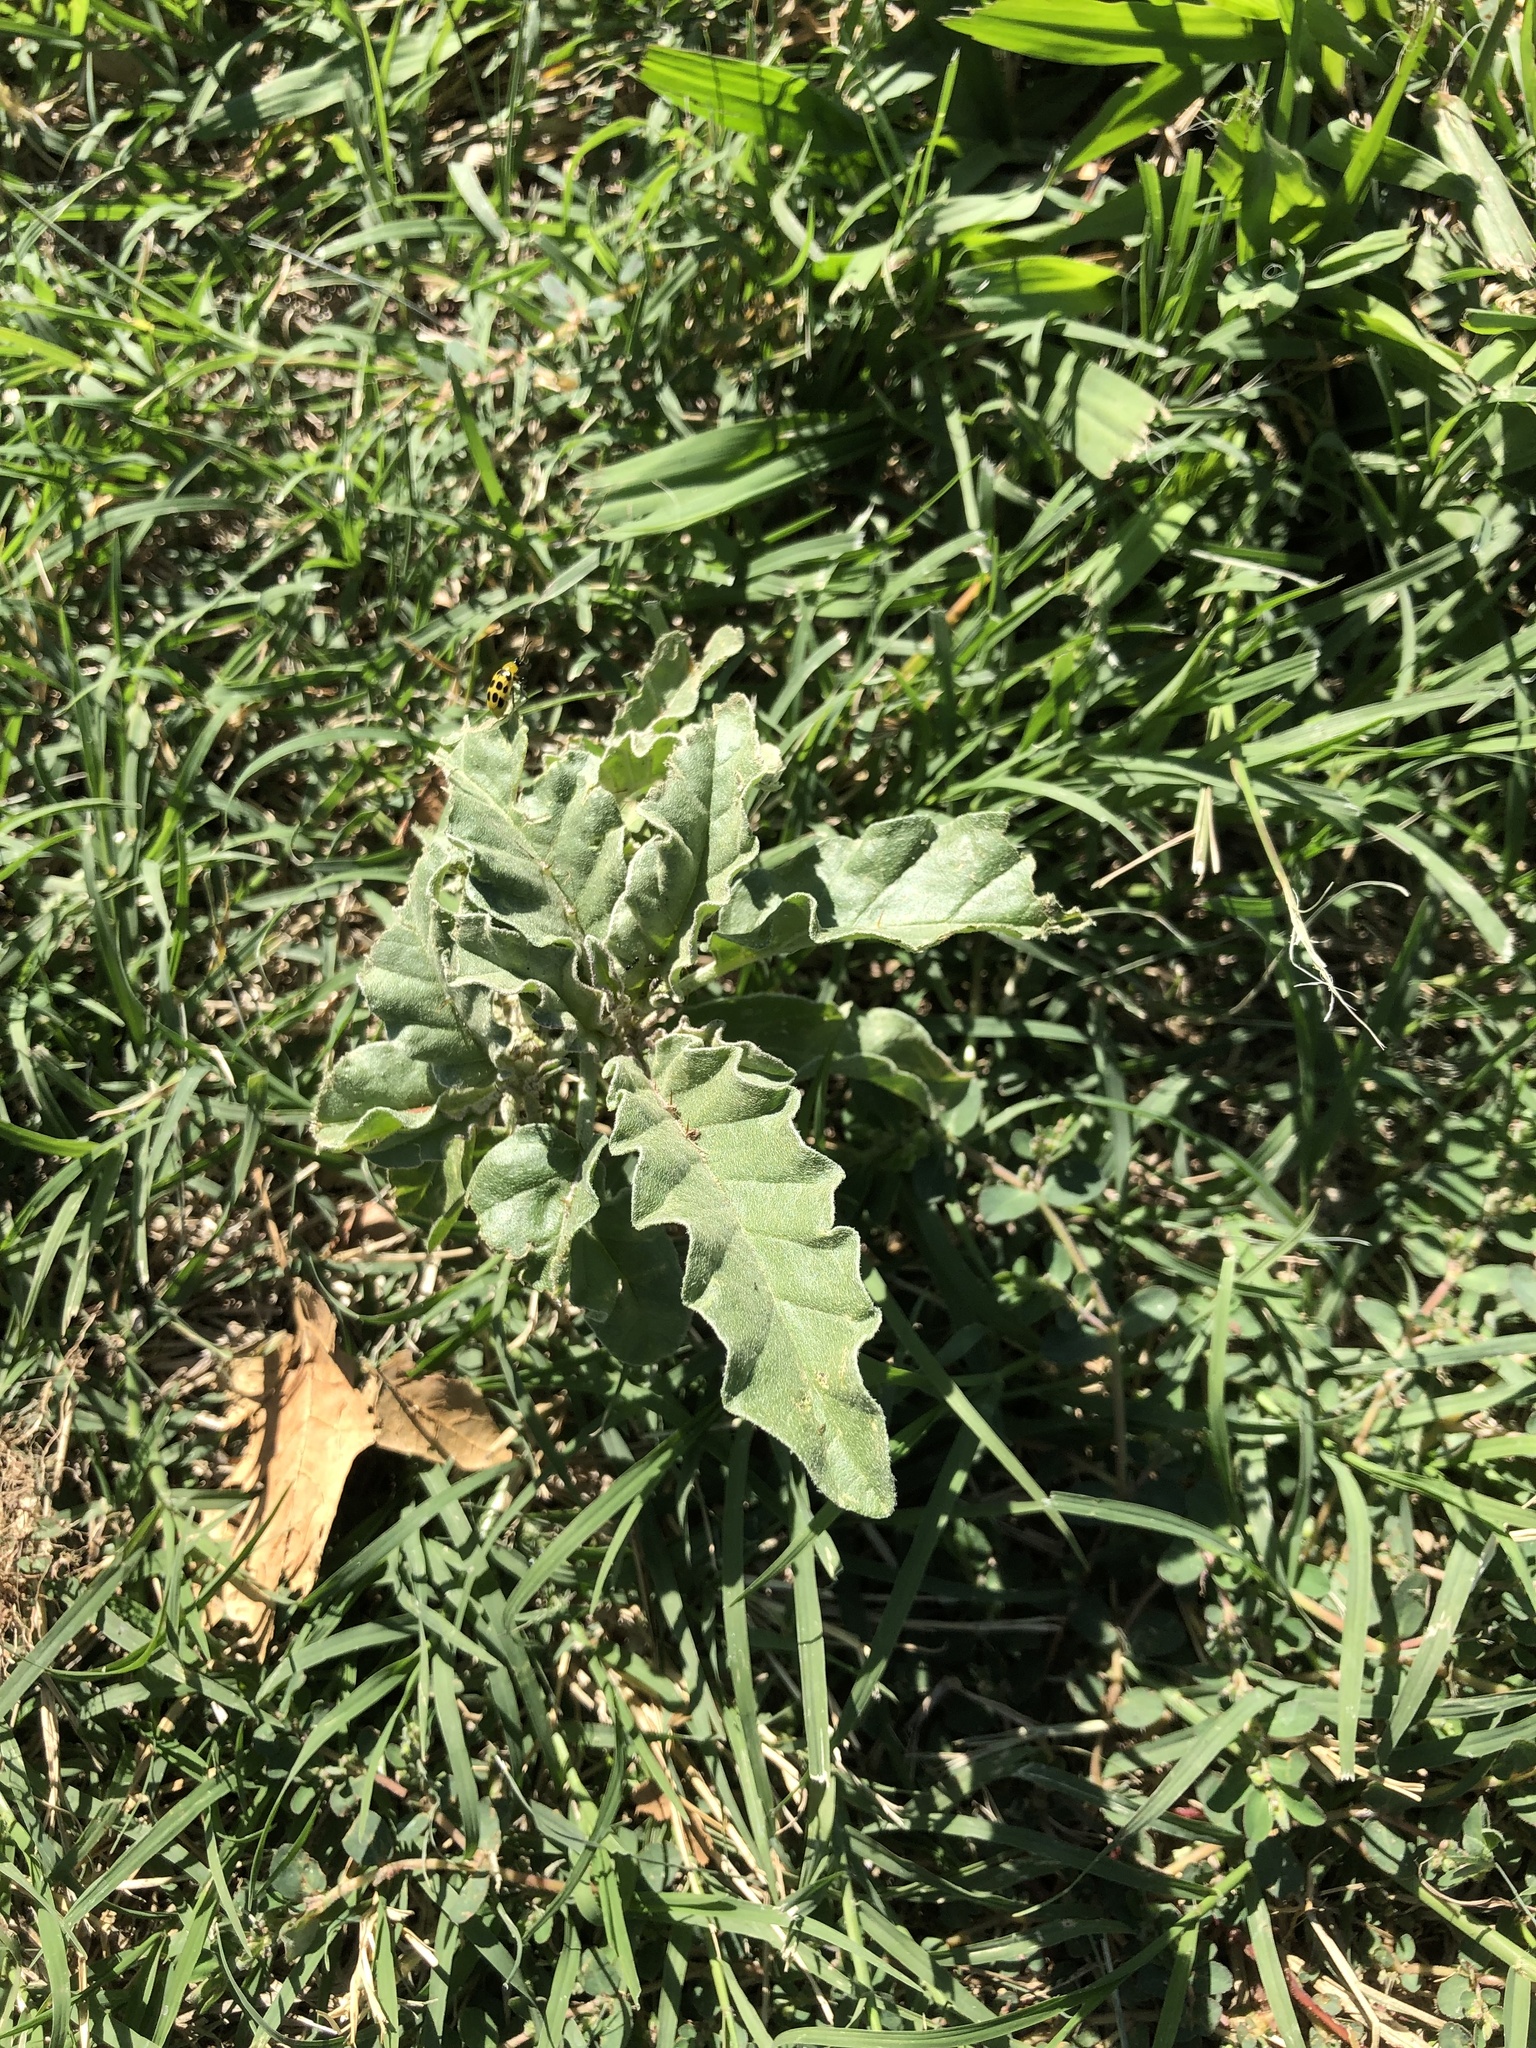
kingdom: Plantae
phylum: Tracheophyta
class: Magnoliopsida
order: Solanales
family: Solanaceae
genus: Solanum
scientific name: Solanum elaeagnifolium
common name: Silverleaf nightshade
